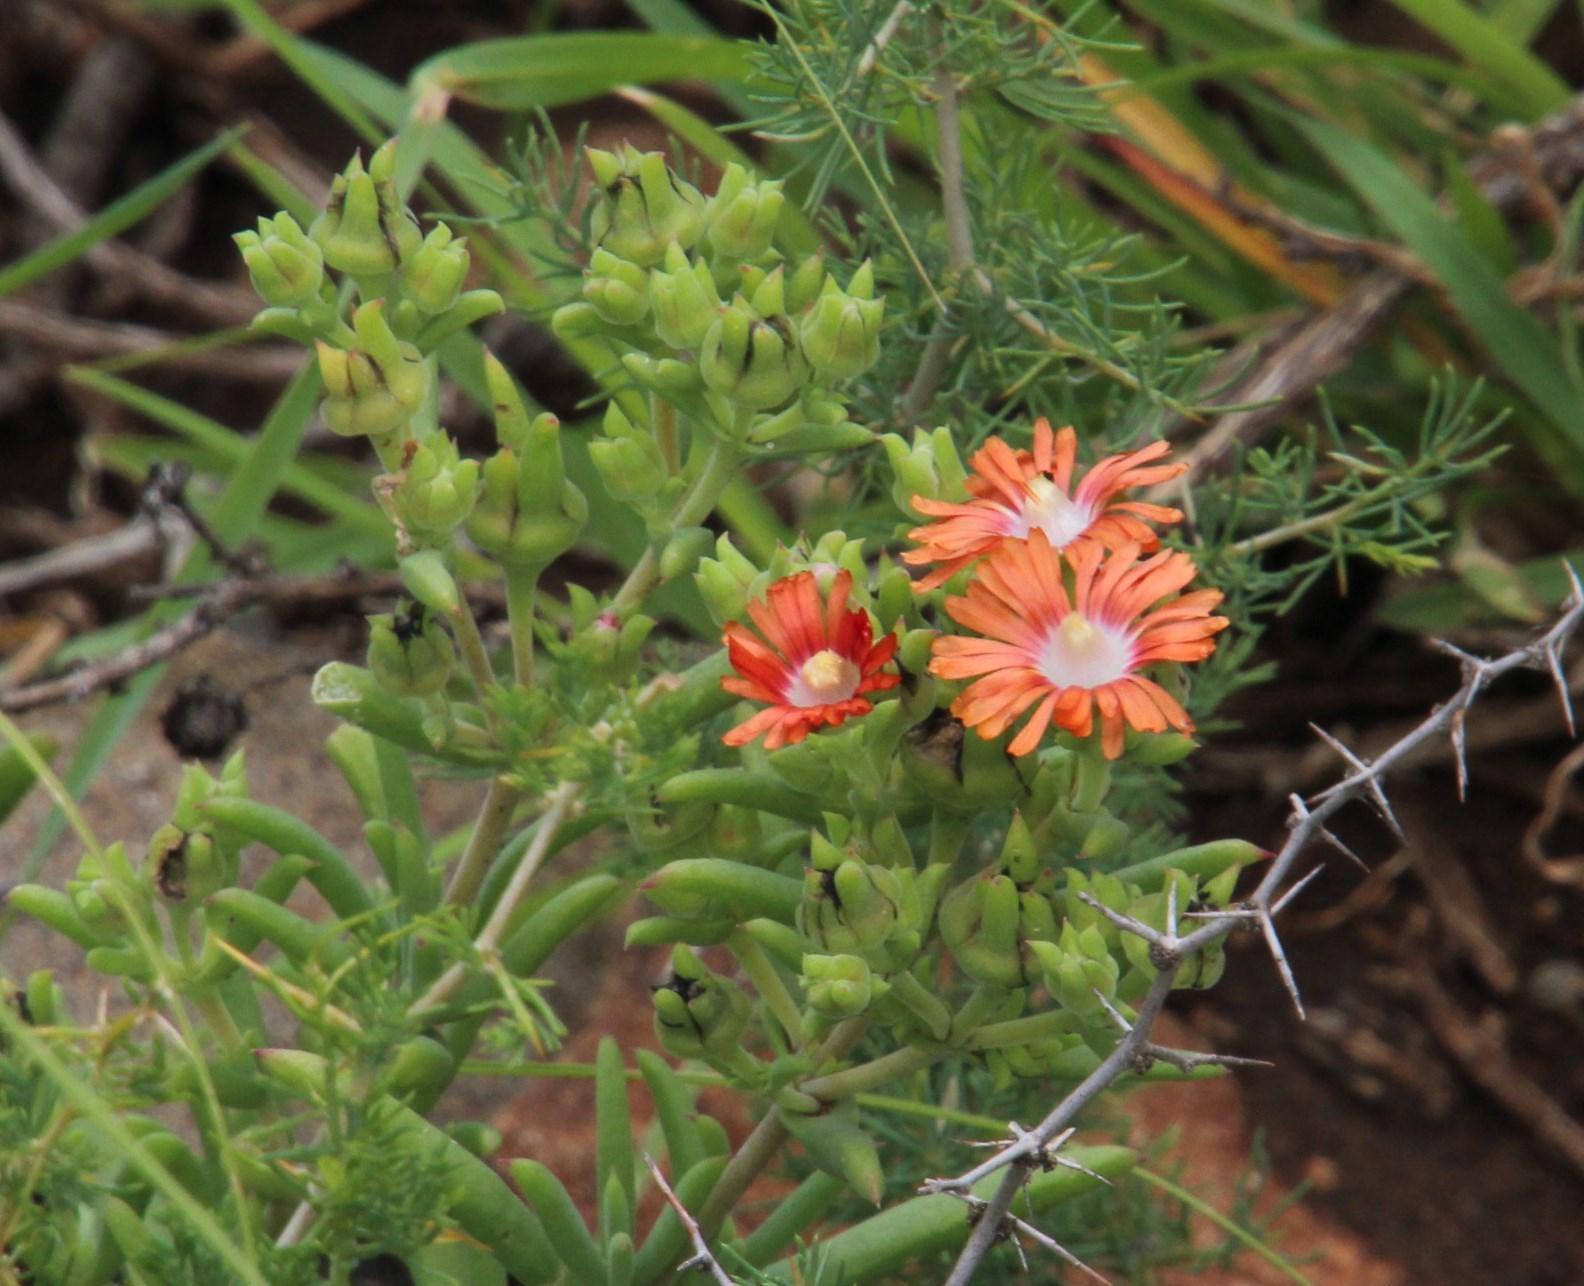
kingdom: Plantae
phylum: Tracheophyta
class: Magnoliopsida
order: Caryophyllales
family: Aizoaceae
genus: Delosperma
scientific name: Delosperma multiflorum
